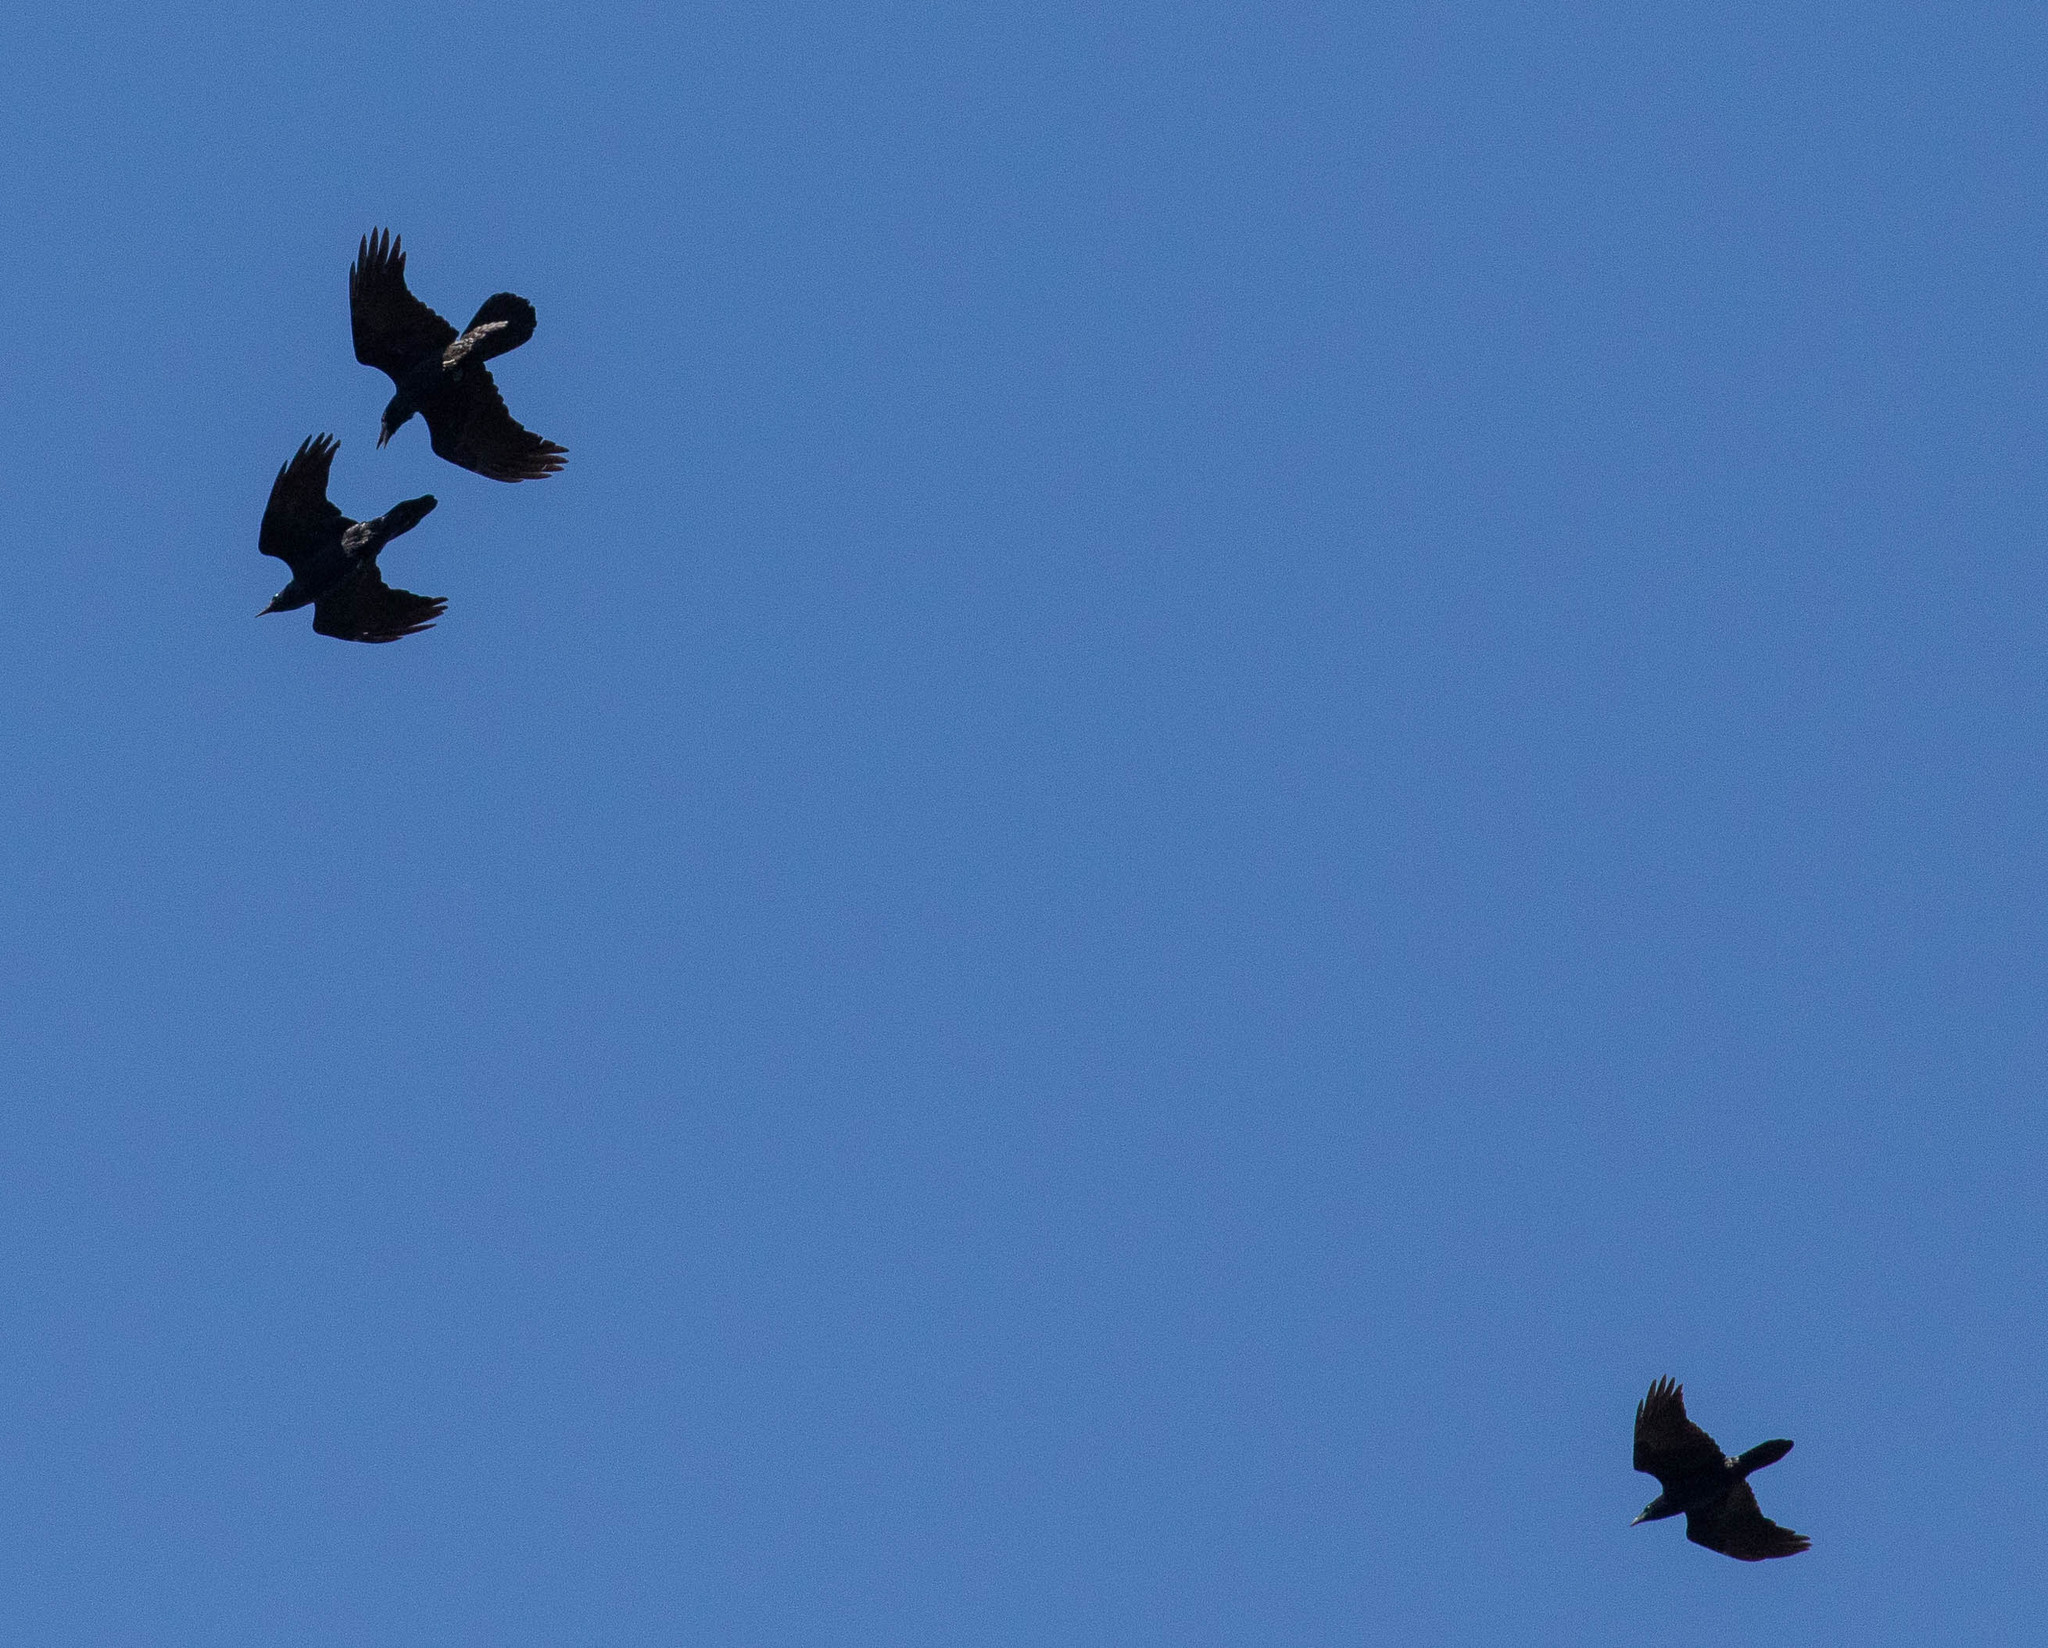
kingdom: Animalia
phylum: Chordata
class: Aves
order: Passeriformes
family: Corvidae
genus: Corvus
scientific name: Corvus corax
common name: Common raven
